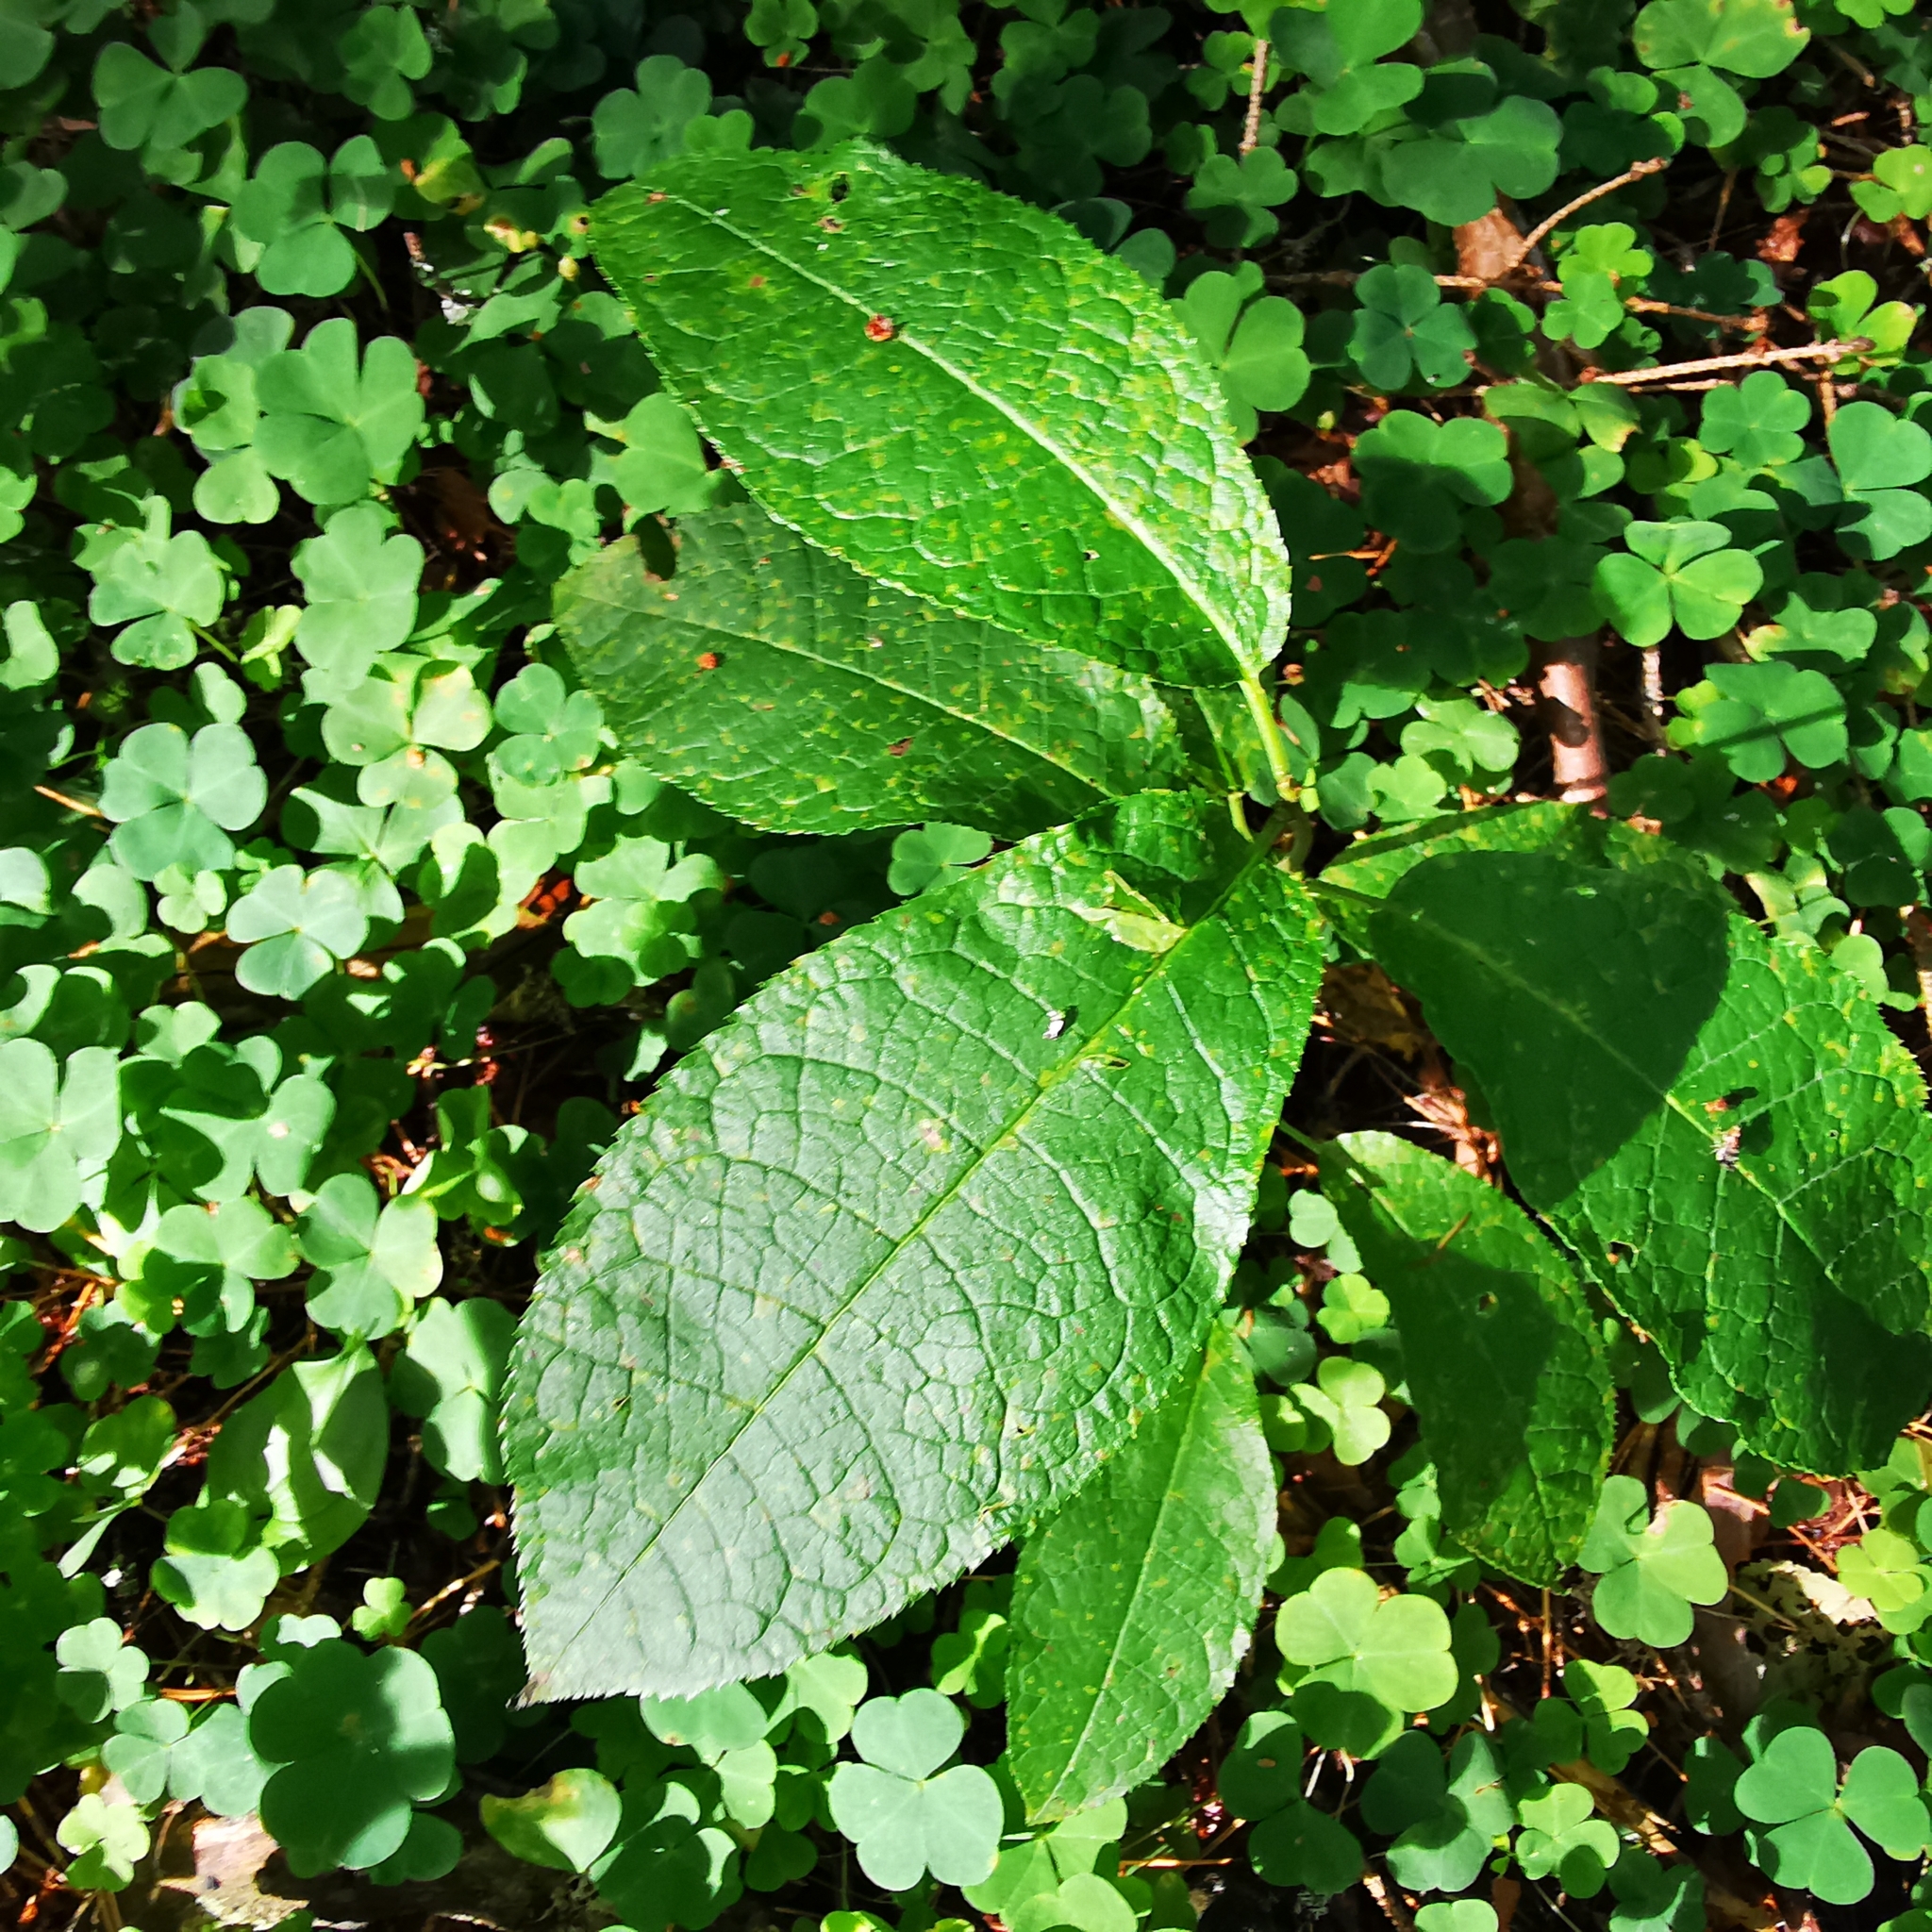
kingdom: Plantae
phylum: Tracheophyta
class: Magnoliopsida
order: Rosales
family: Rosaceae
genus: Prunus
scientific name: Prunus padus
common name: Bird cherry
